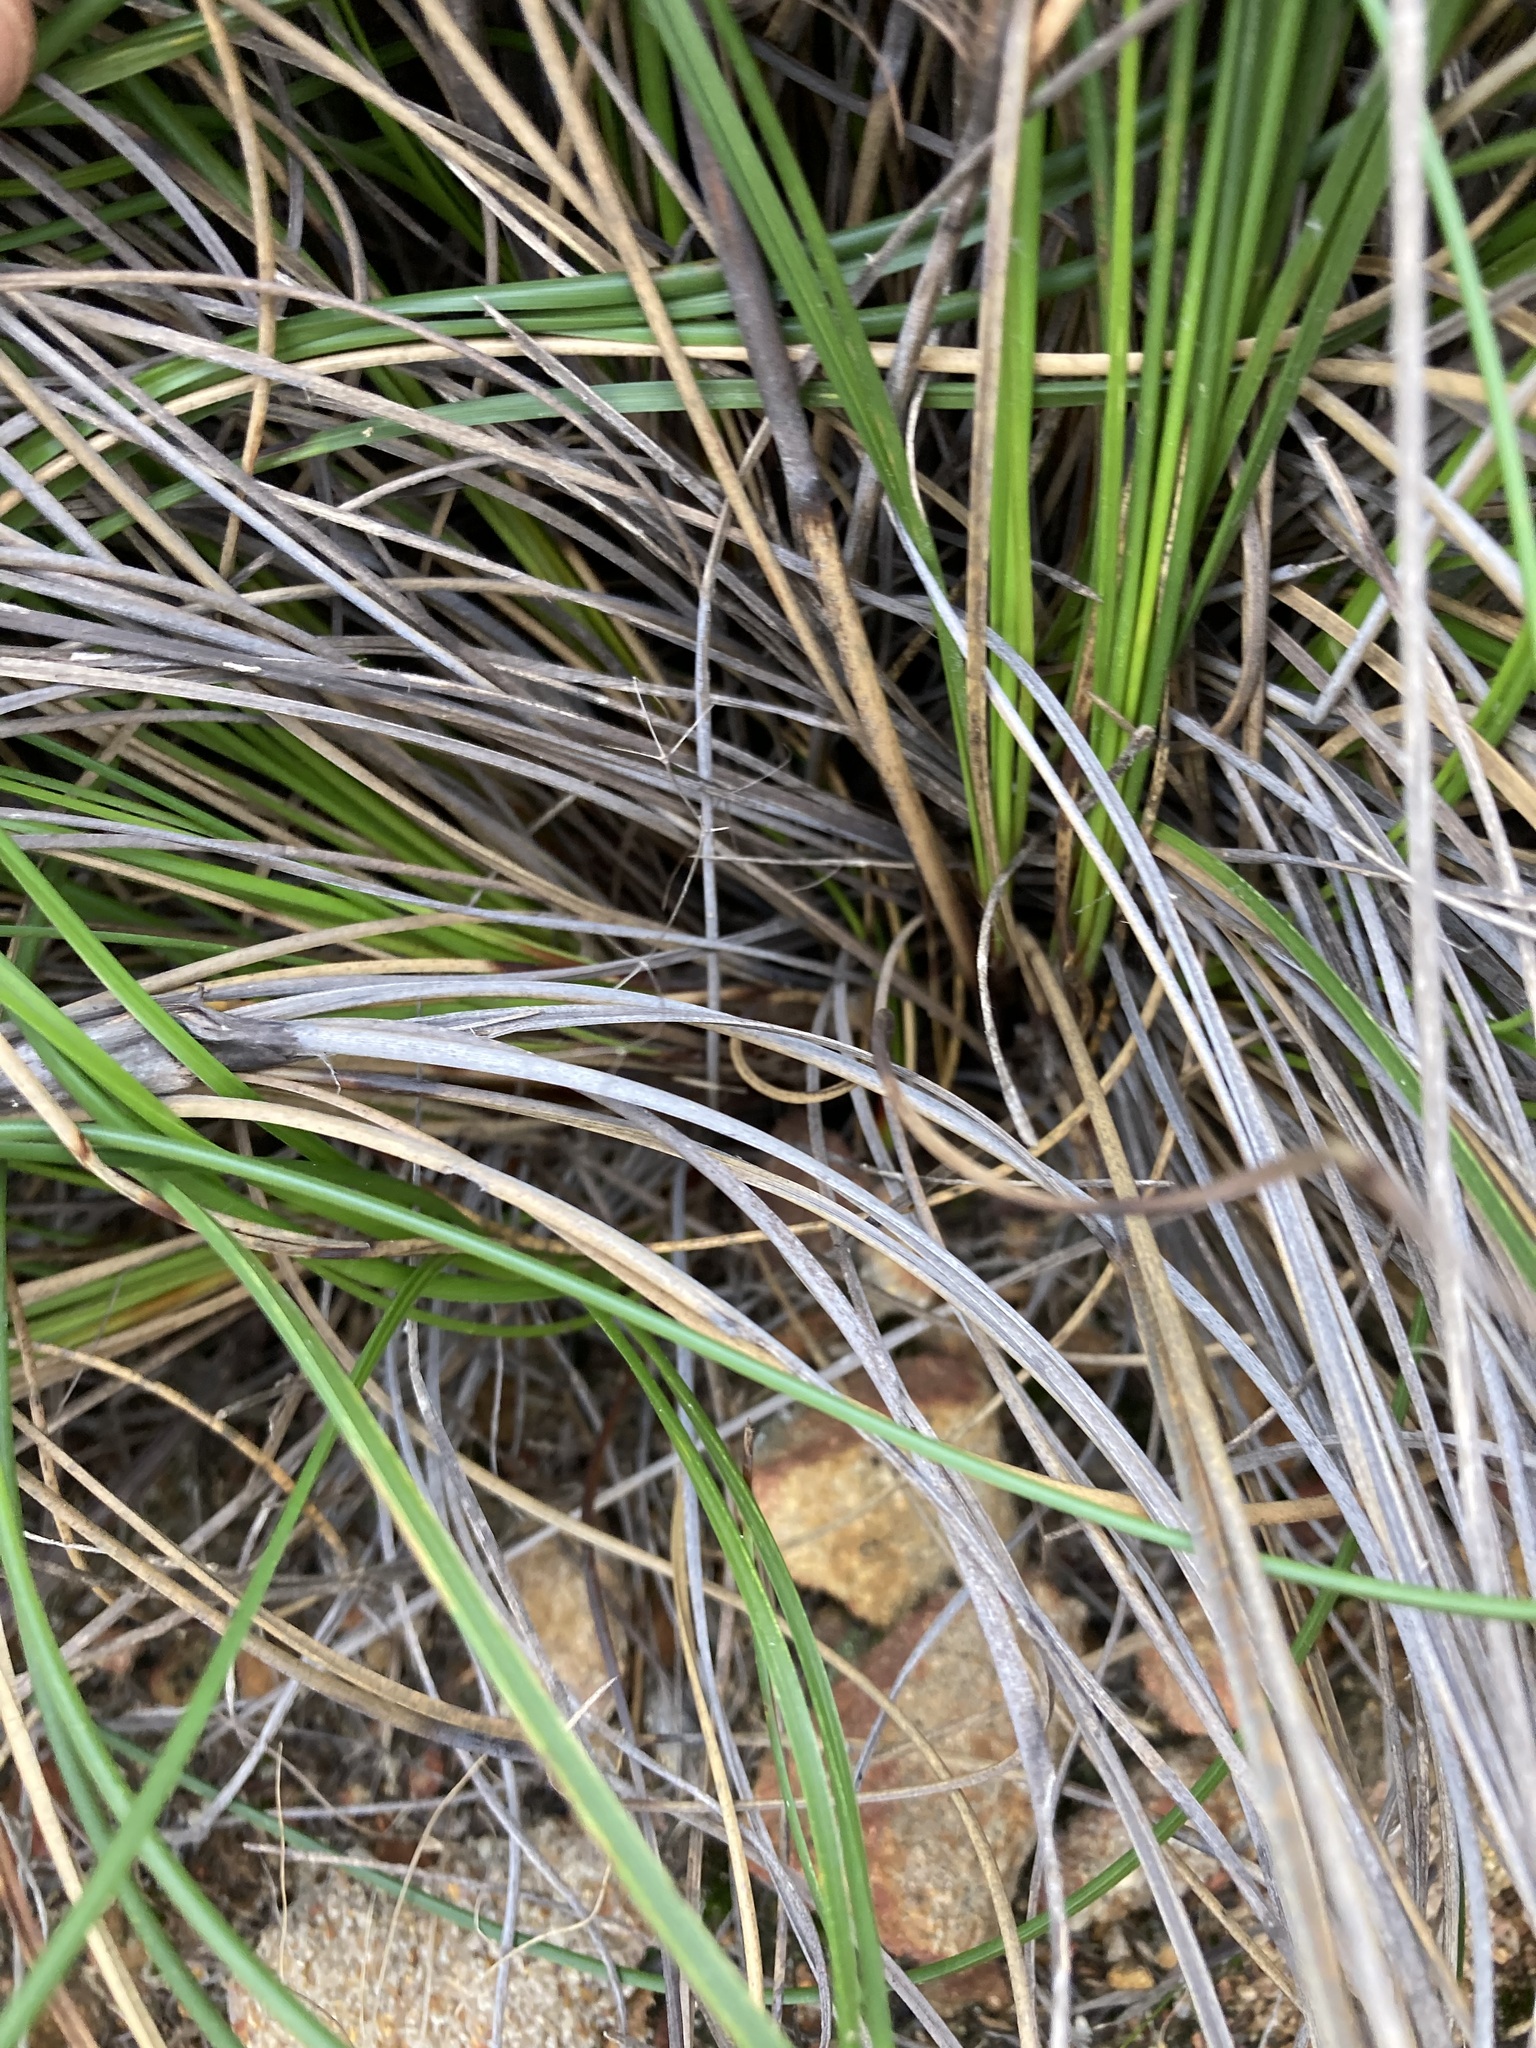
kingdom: Plantae
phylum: Tracheophyta
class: Liliopsida
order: Poales
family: Cyperaceae
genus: Mesomelaena
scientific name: Mesomelaena tetragona
